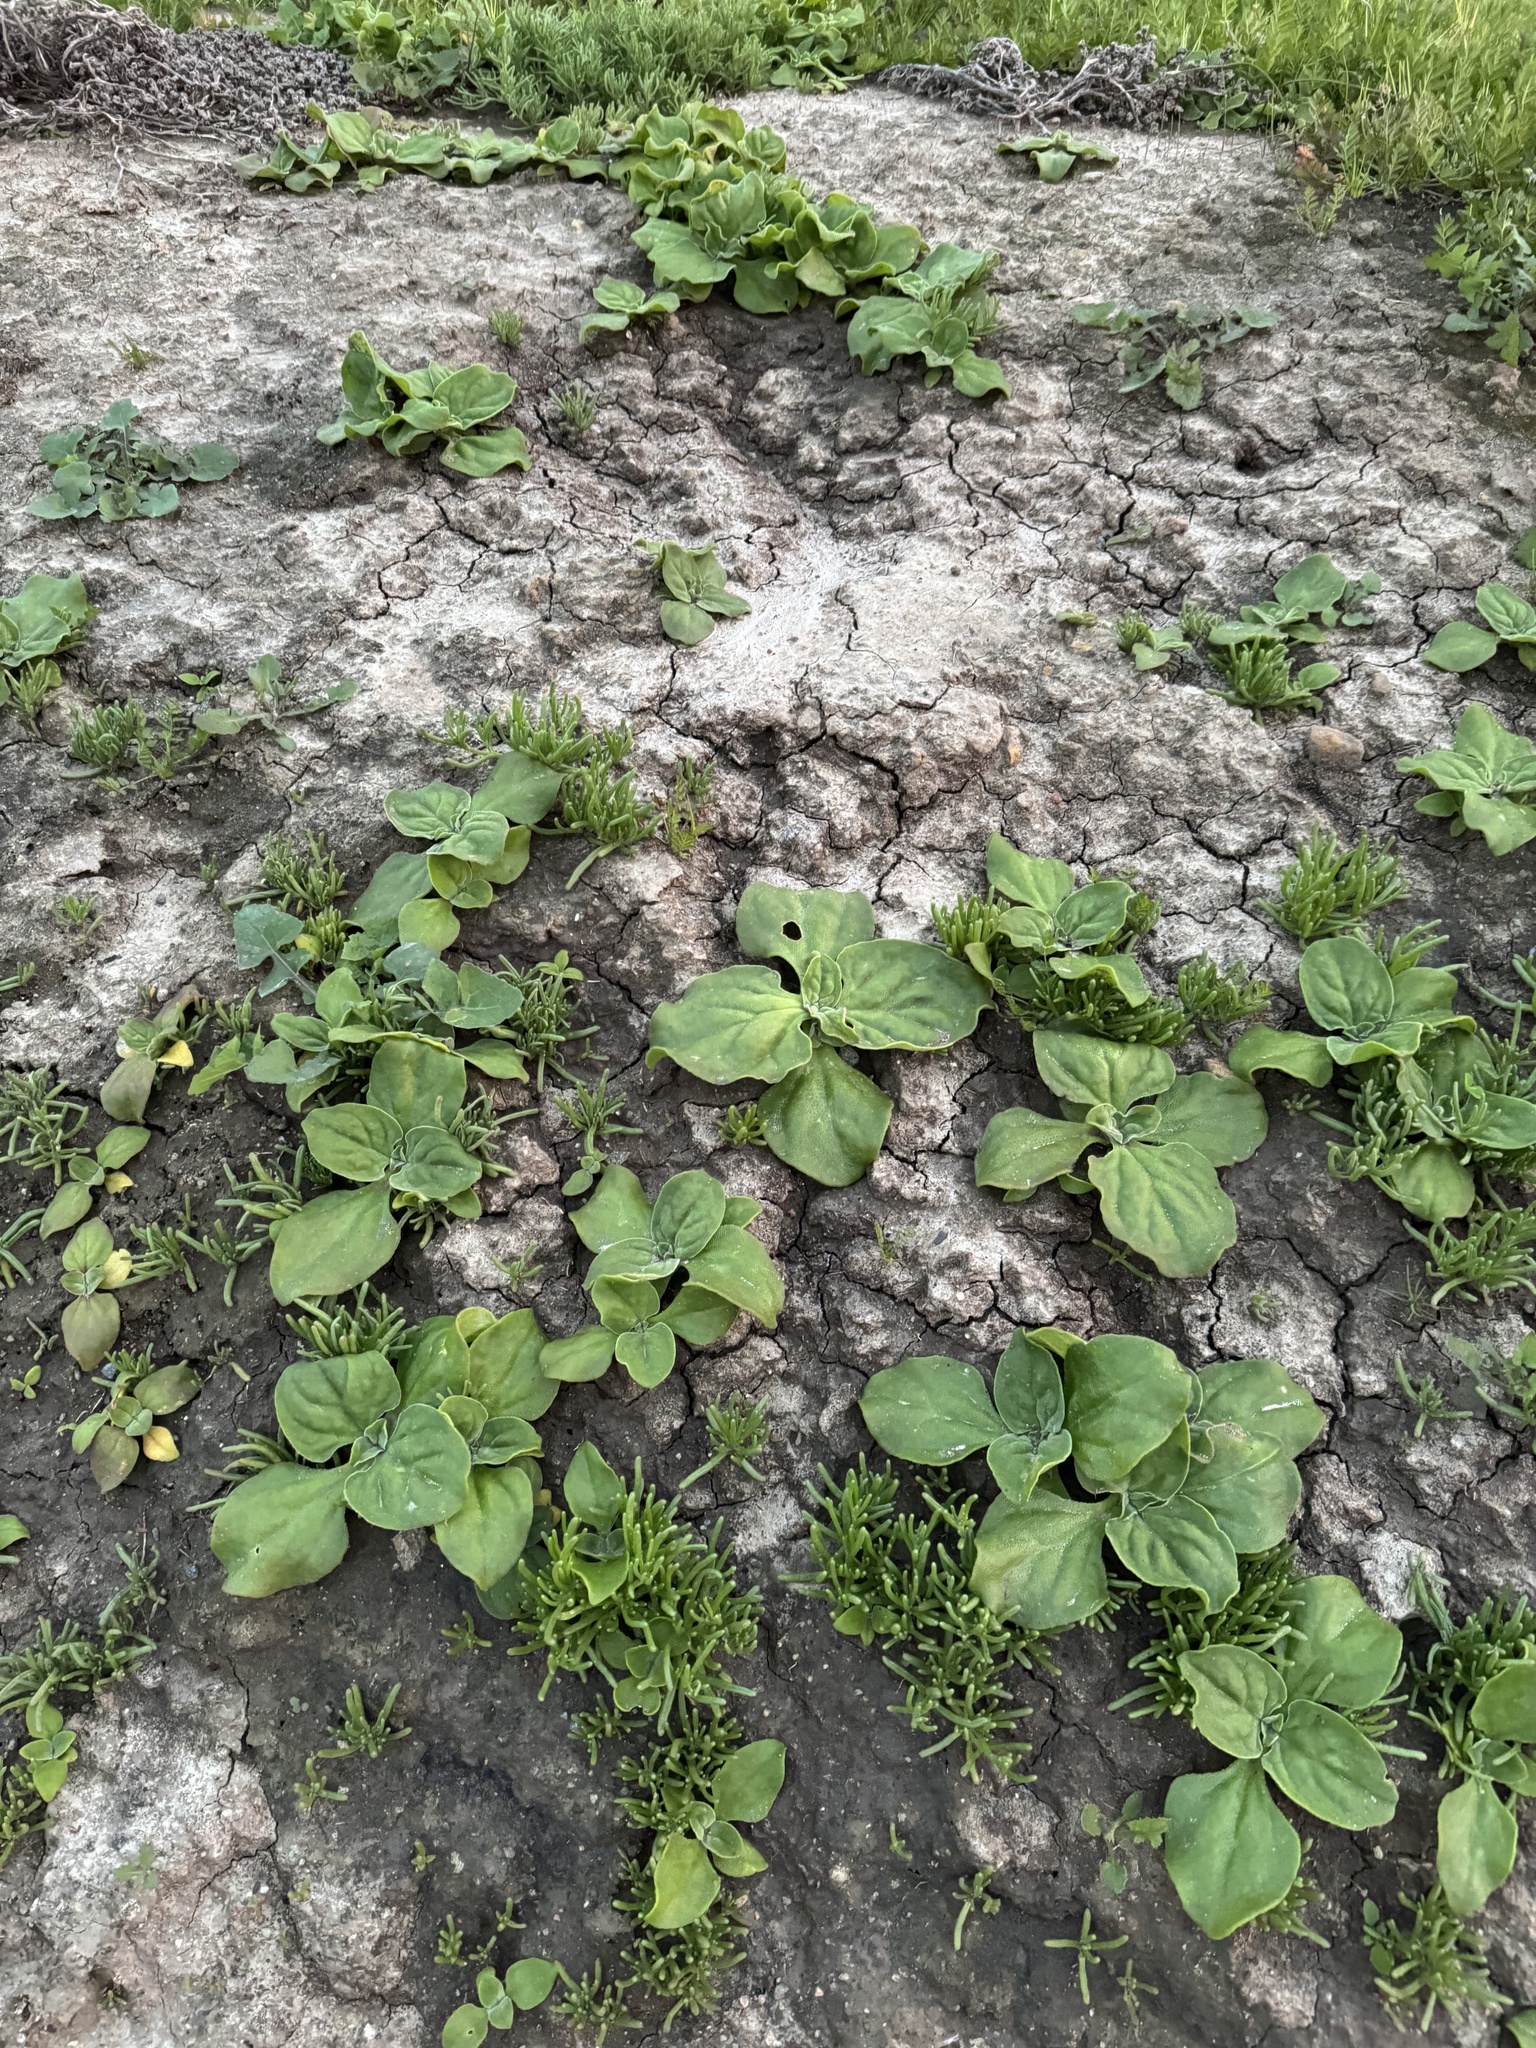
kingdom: Plantae
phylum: Tracheophyta
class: Magnoliopsida
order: Caryophyllales
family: Aizoaceae
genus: Mesembryanthemum
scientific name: Mesembryanthemum crystallinum
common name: Common iceplant
